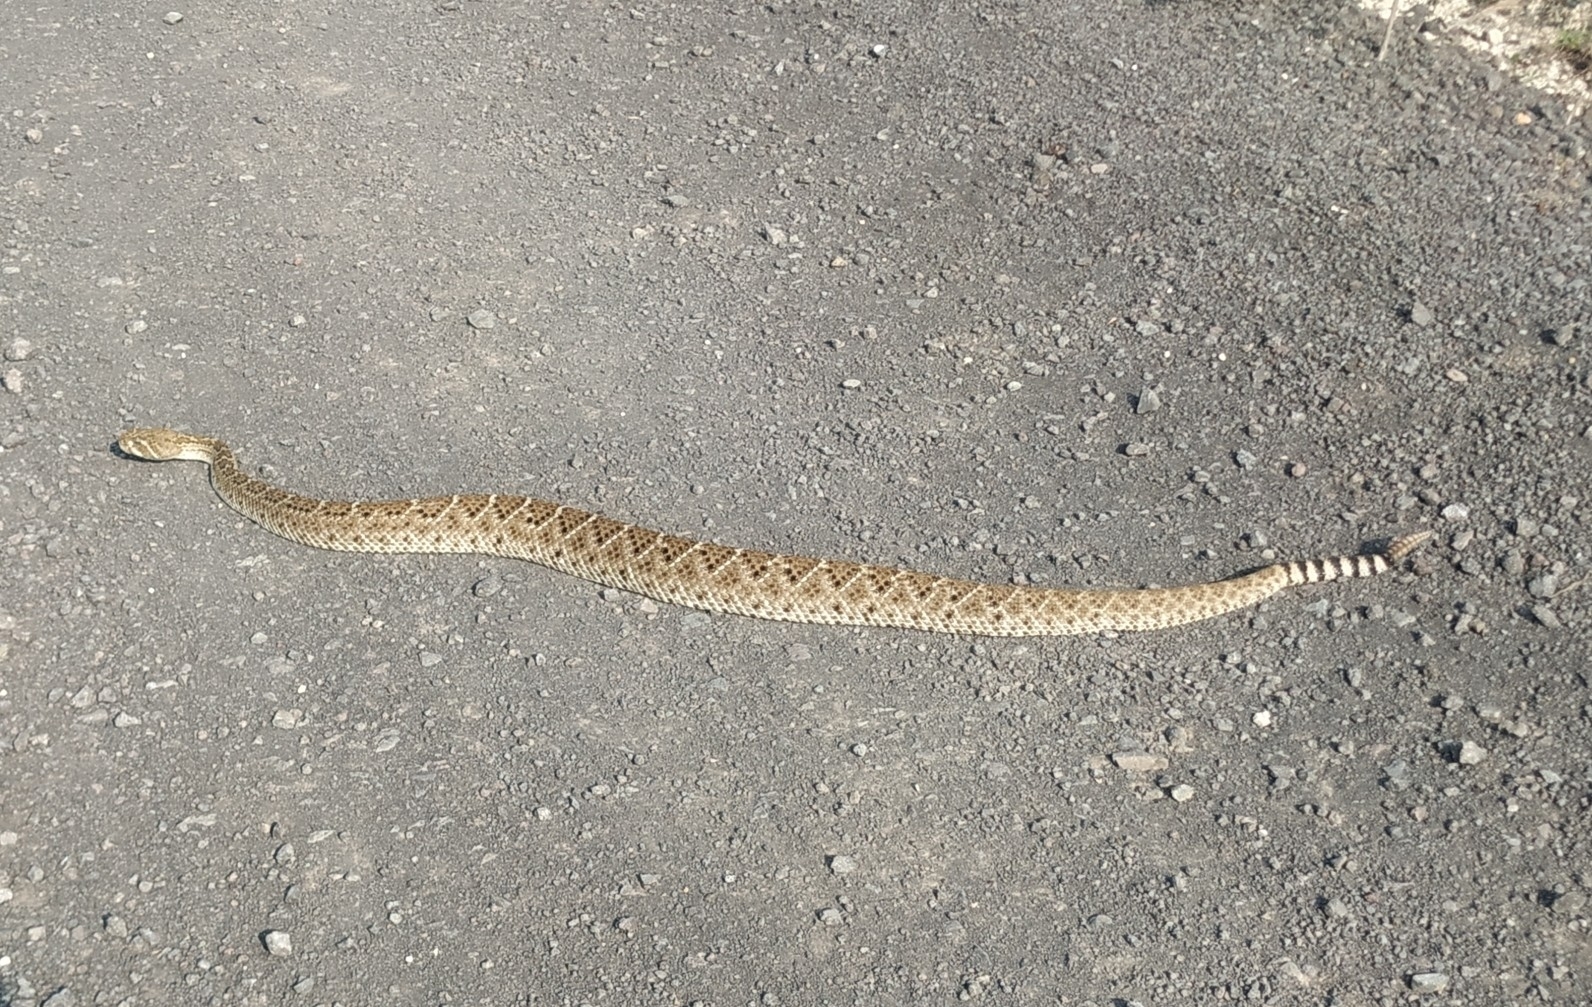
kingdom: Animalia
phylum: Chordata
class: Squamata
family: Viperidae
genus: Crotalus
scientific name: Crotalus atrox
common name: Western diamond-backed rattlesnake
